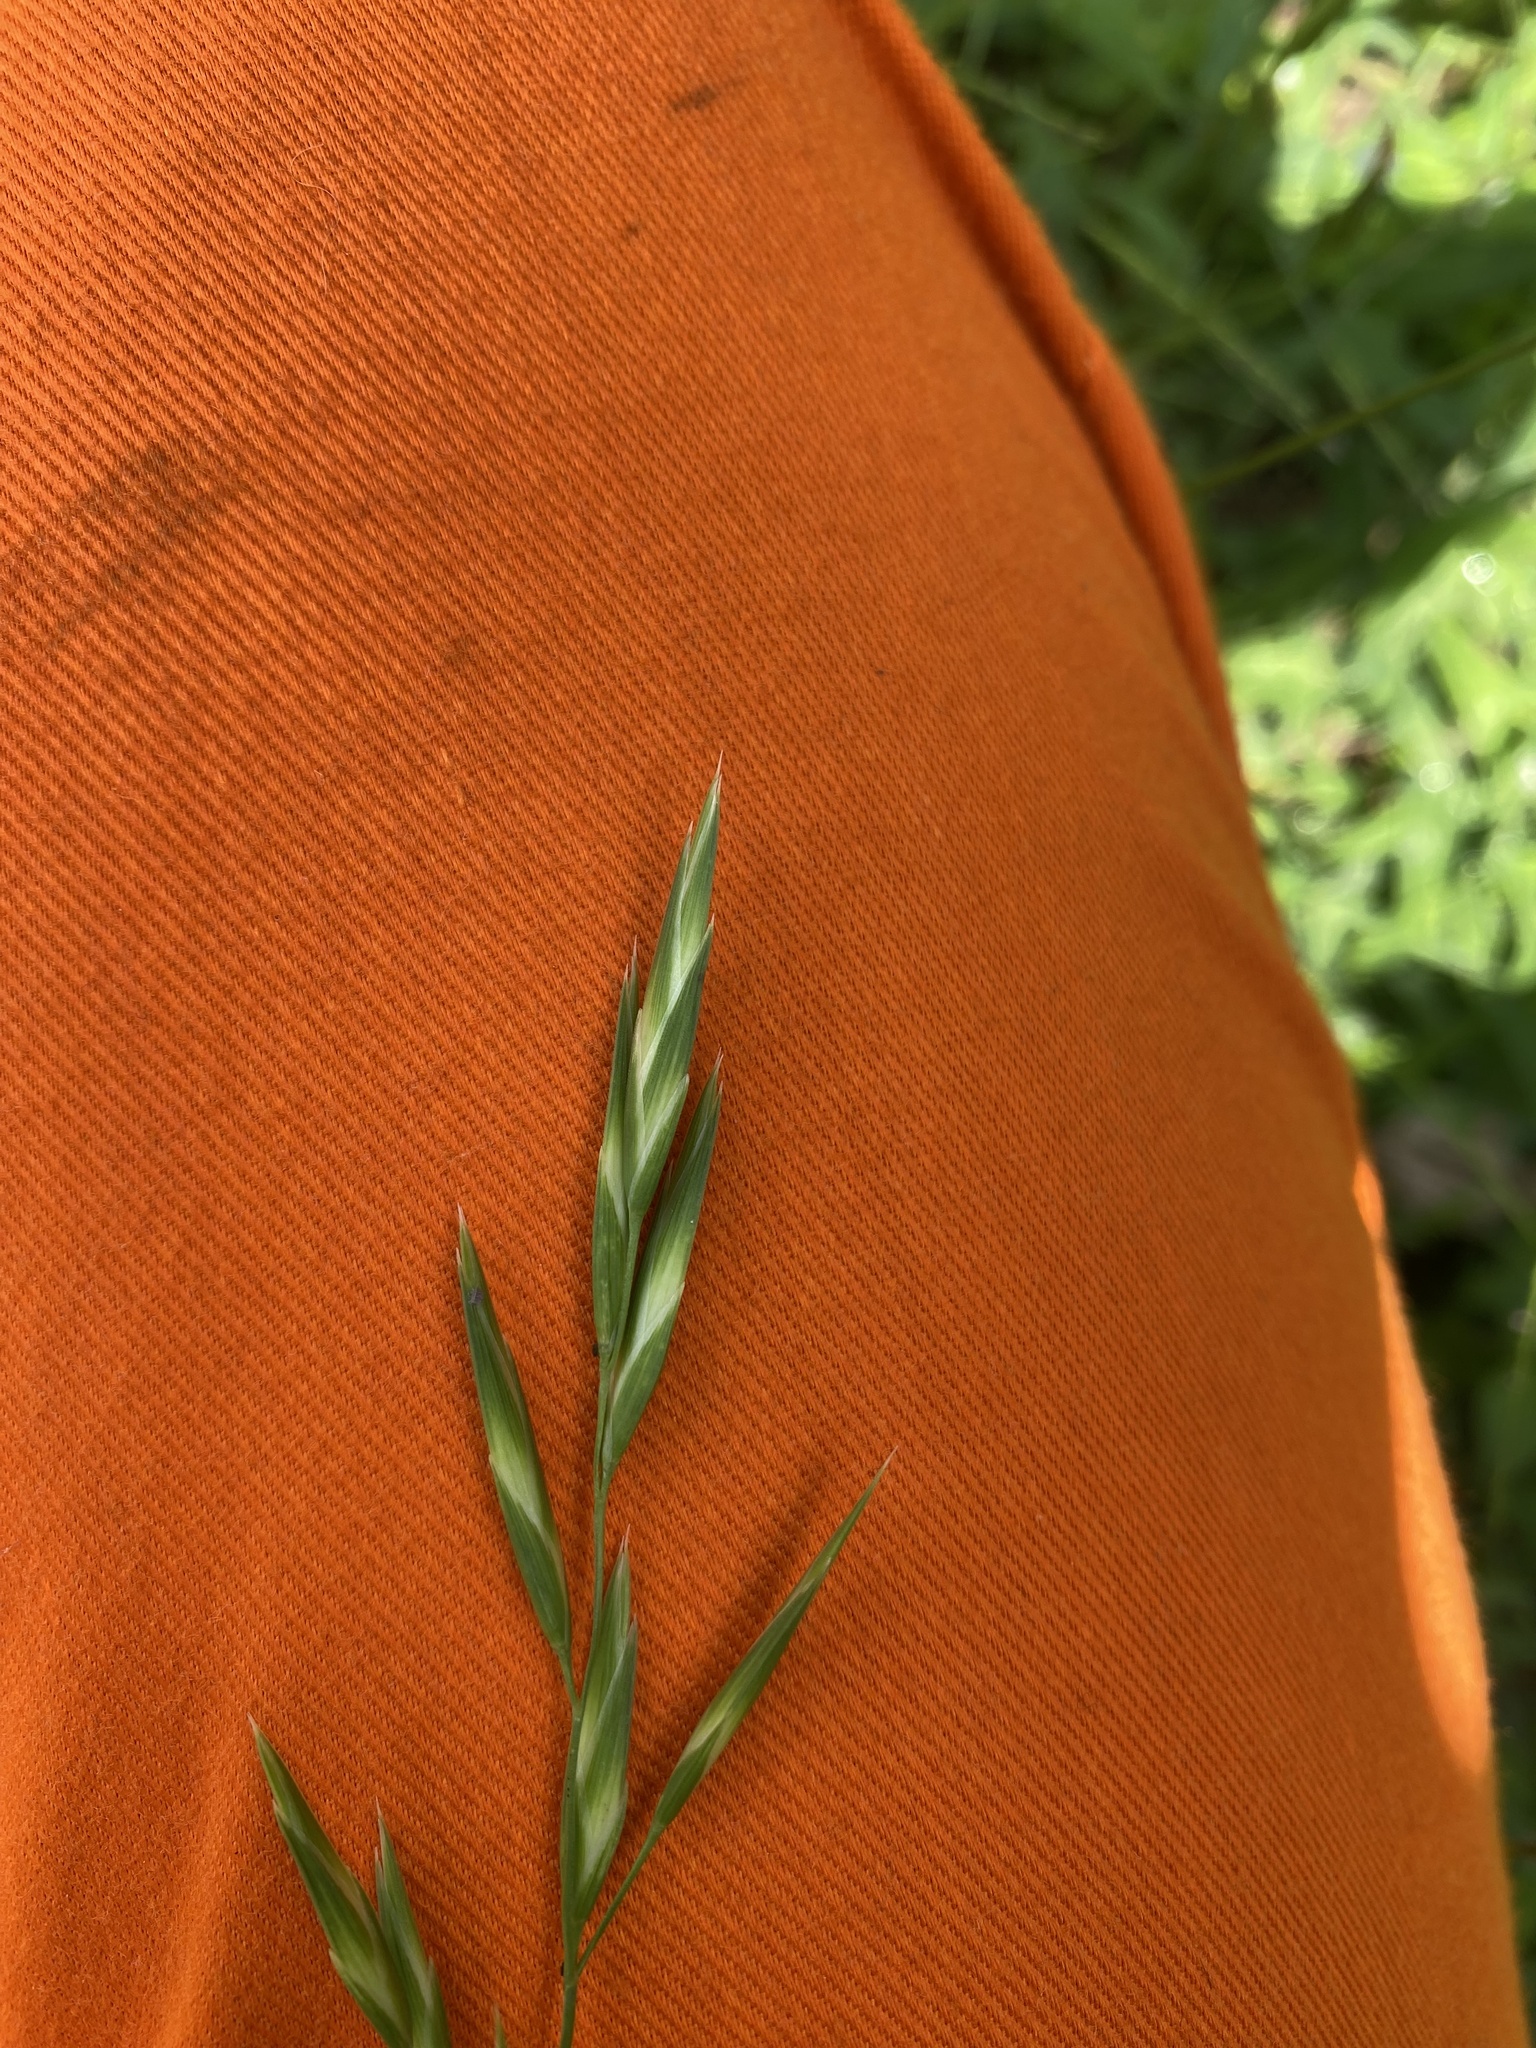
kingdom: Plantae
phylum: Tracheophyta
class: Liliopsida
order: Poales
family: Poaceae
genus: Bromus
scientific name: Bromus catharticus
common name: Rescuegrass
